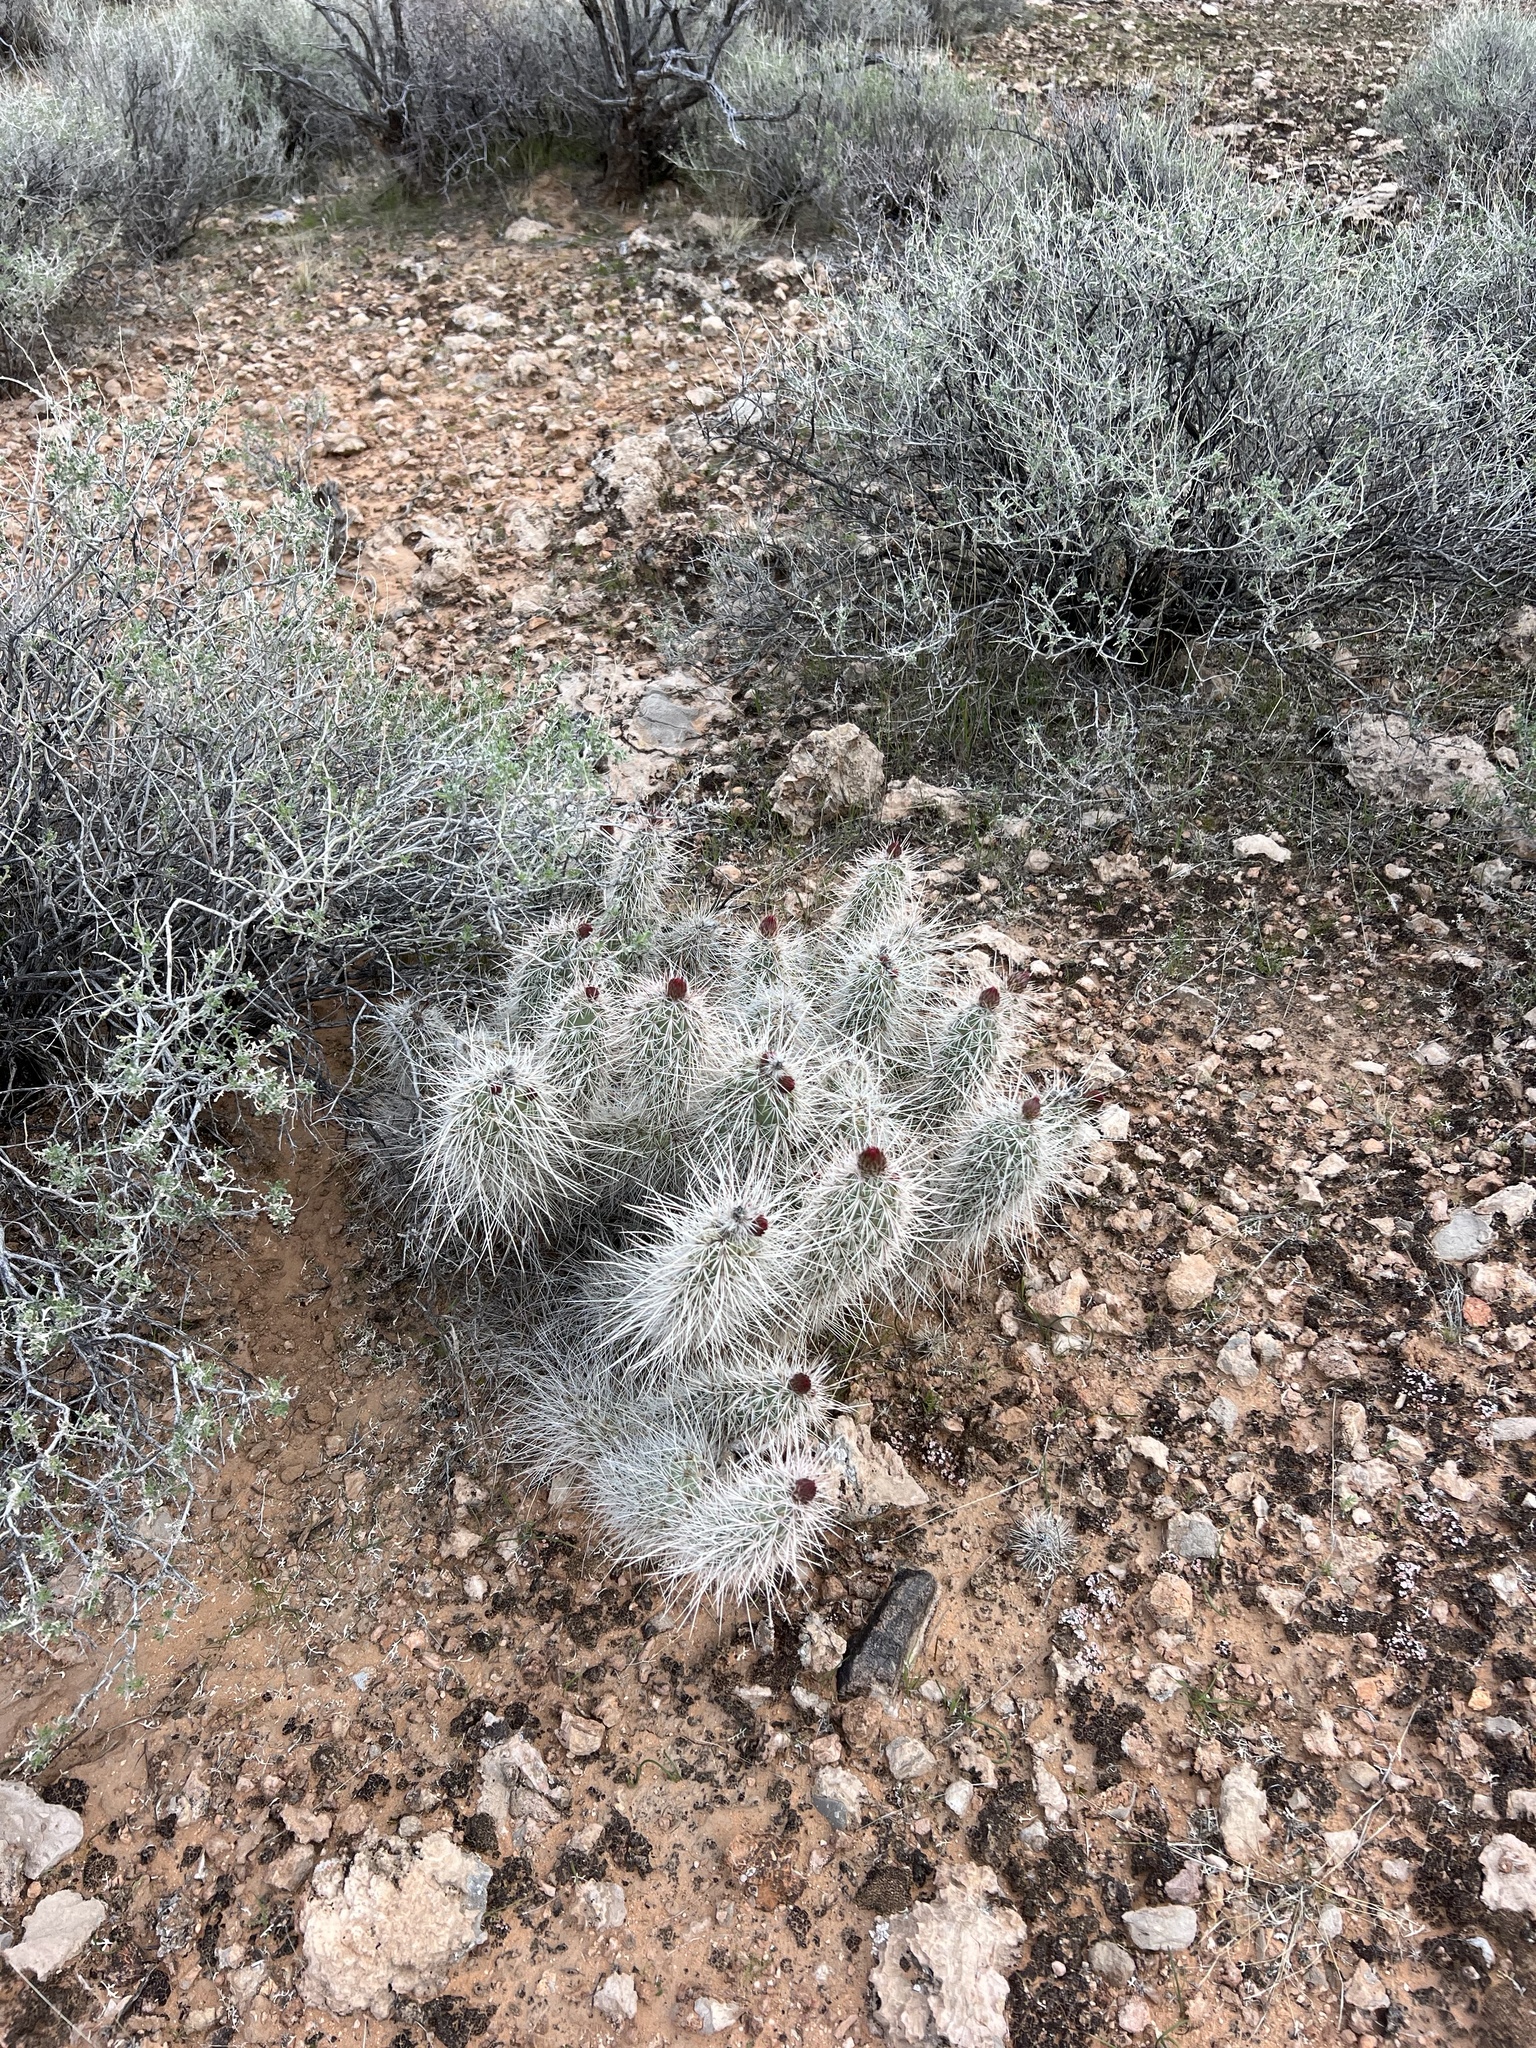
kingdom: Plantae
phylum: Tracheophyta
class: Magnoliopsida
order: Caryophyllales
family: Cactaceae
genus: Opuntia
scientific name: Opuntia polyacantha
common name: Plains prickly-pear
